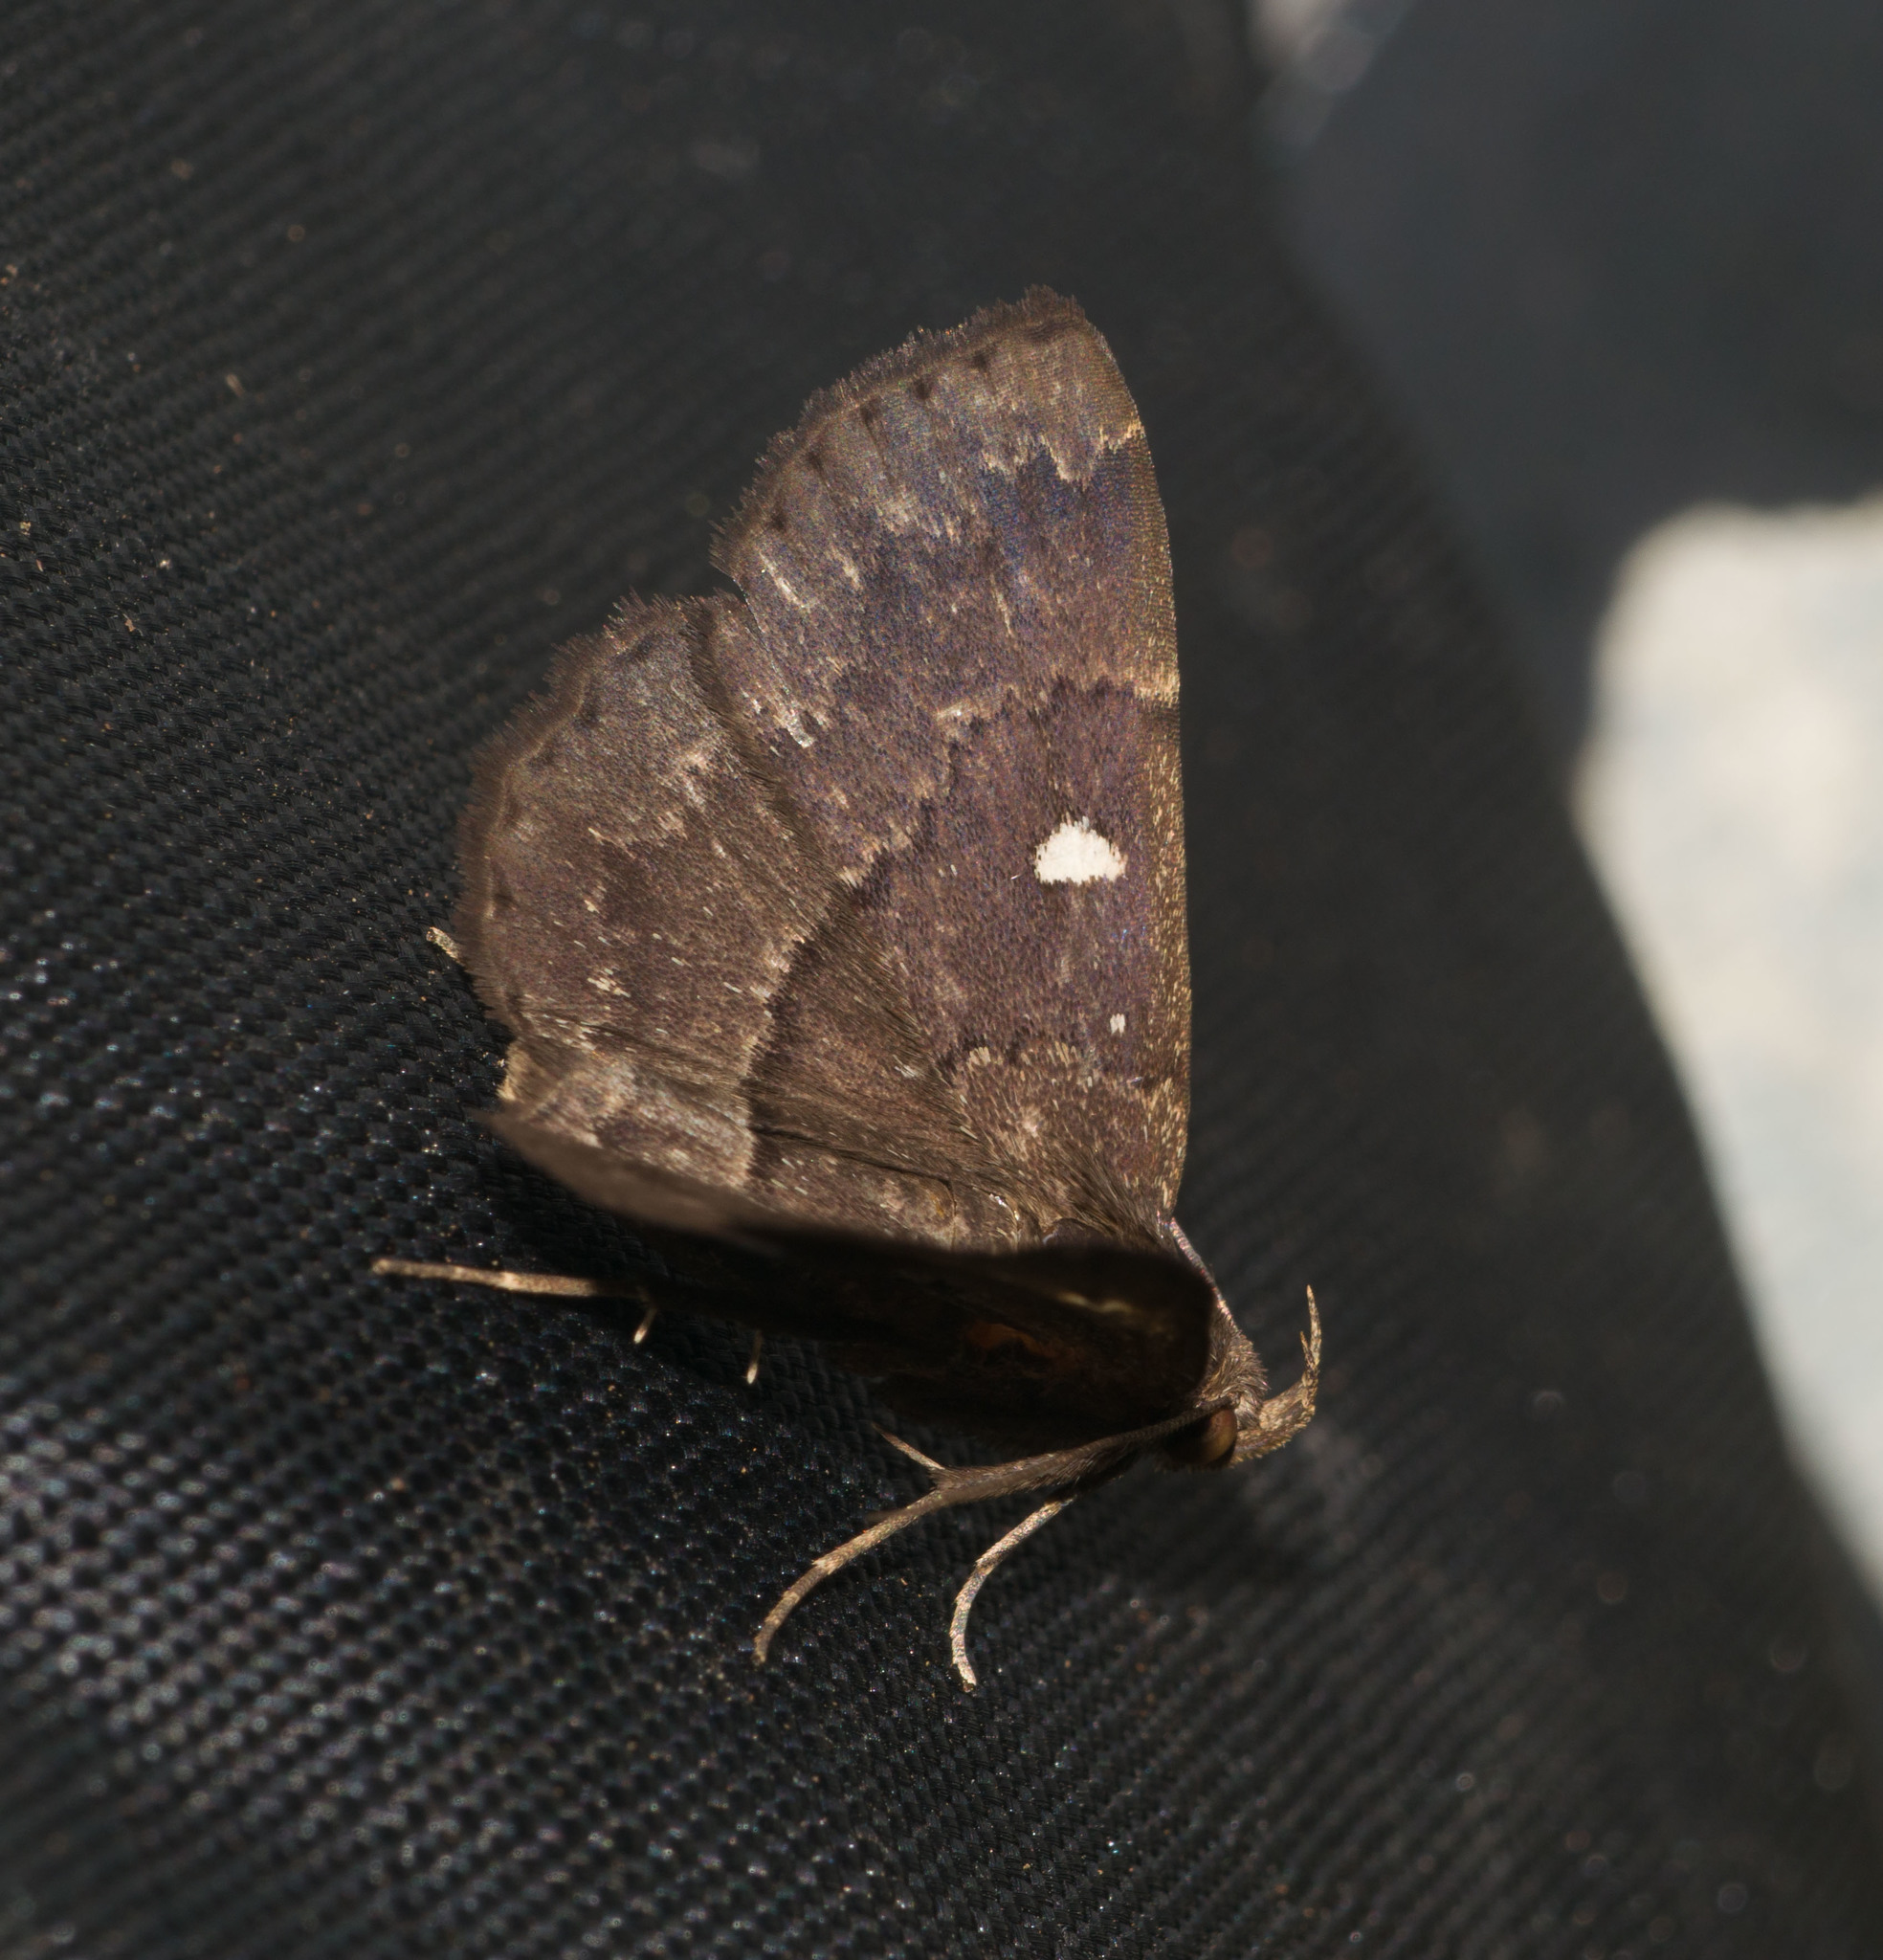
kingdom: Animalia
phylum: Arthropoda
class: Insecta
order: Lepidoptera
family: Erebidae
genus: Bocana
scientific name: Bocana manifestalis
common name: Moth
